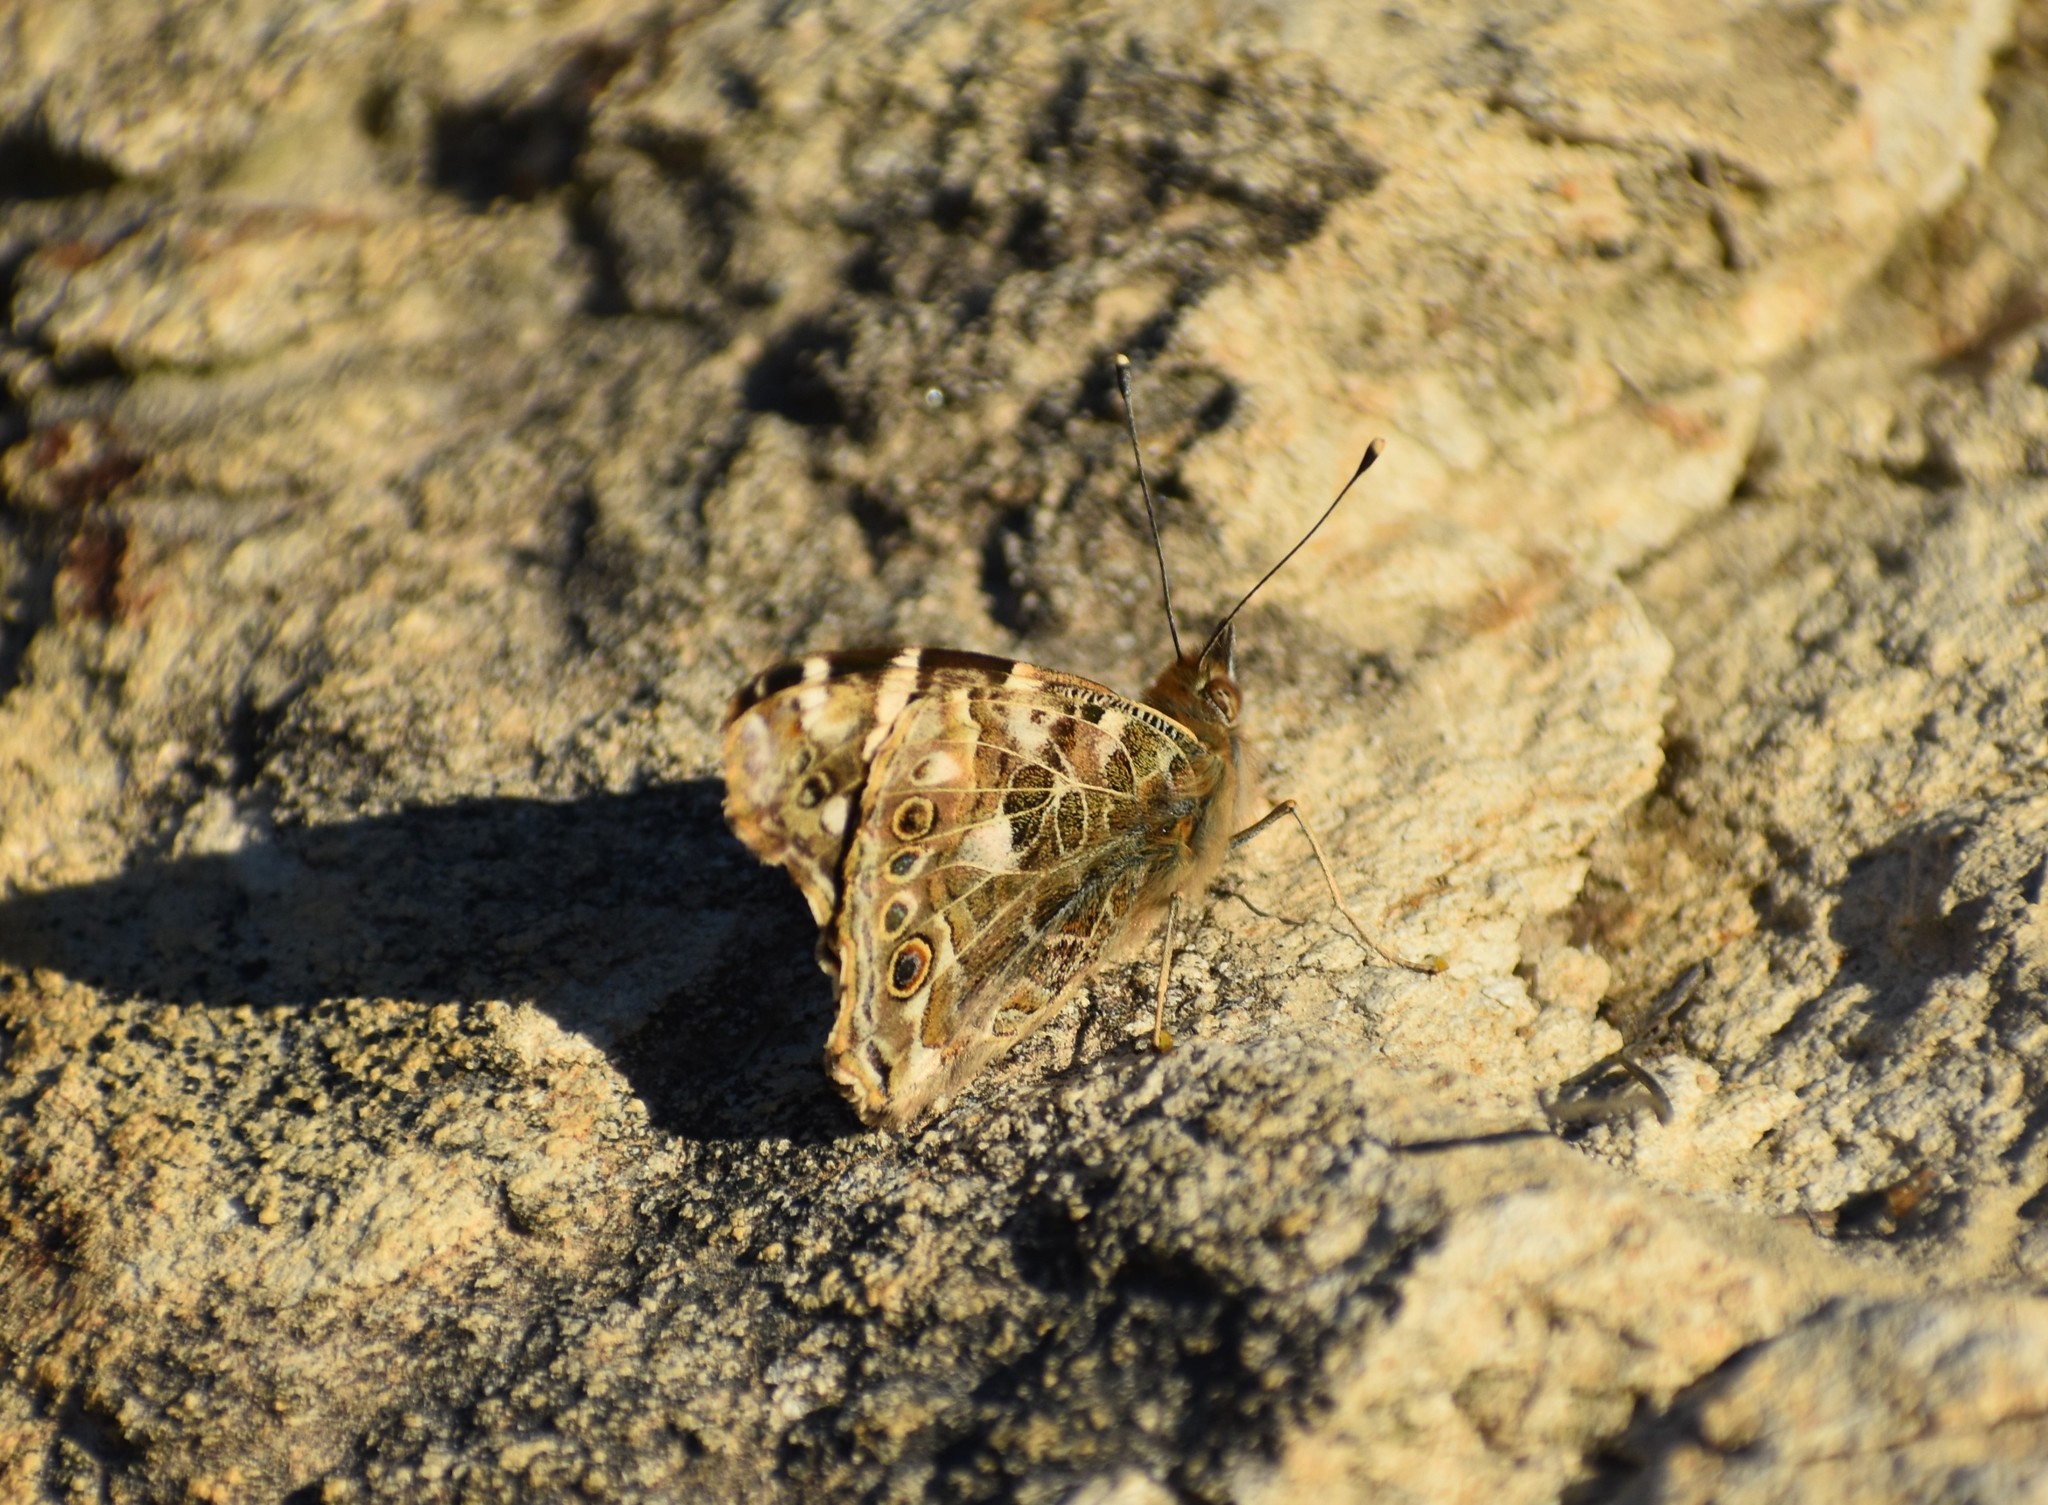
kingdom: Animalia
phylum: Arthropoda
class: Insecta
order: Lepidoptera
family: Nymphalidae
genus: Vanessa
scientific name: Vanessa cardui
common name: Painted lady
